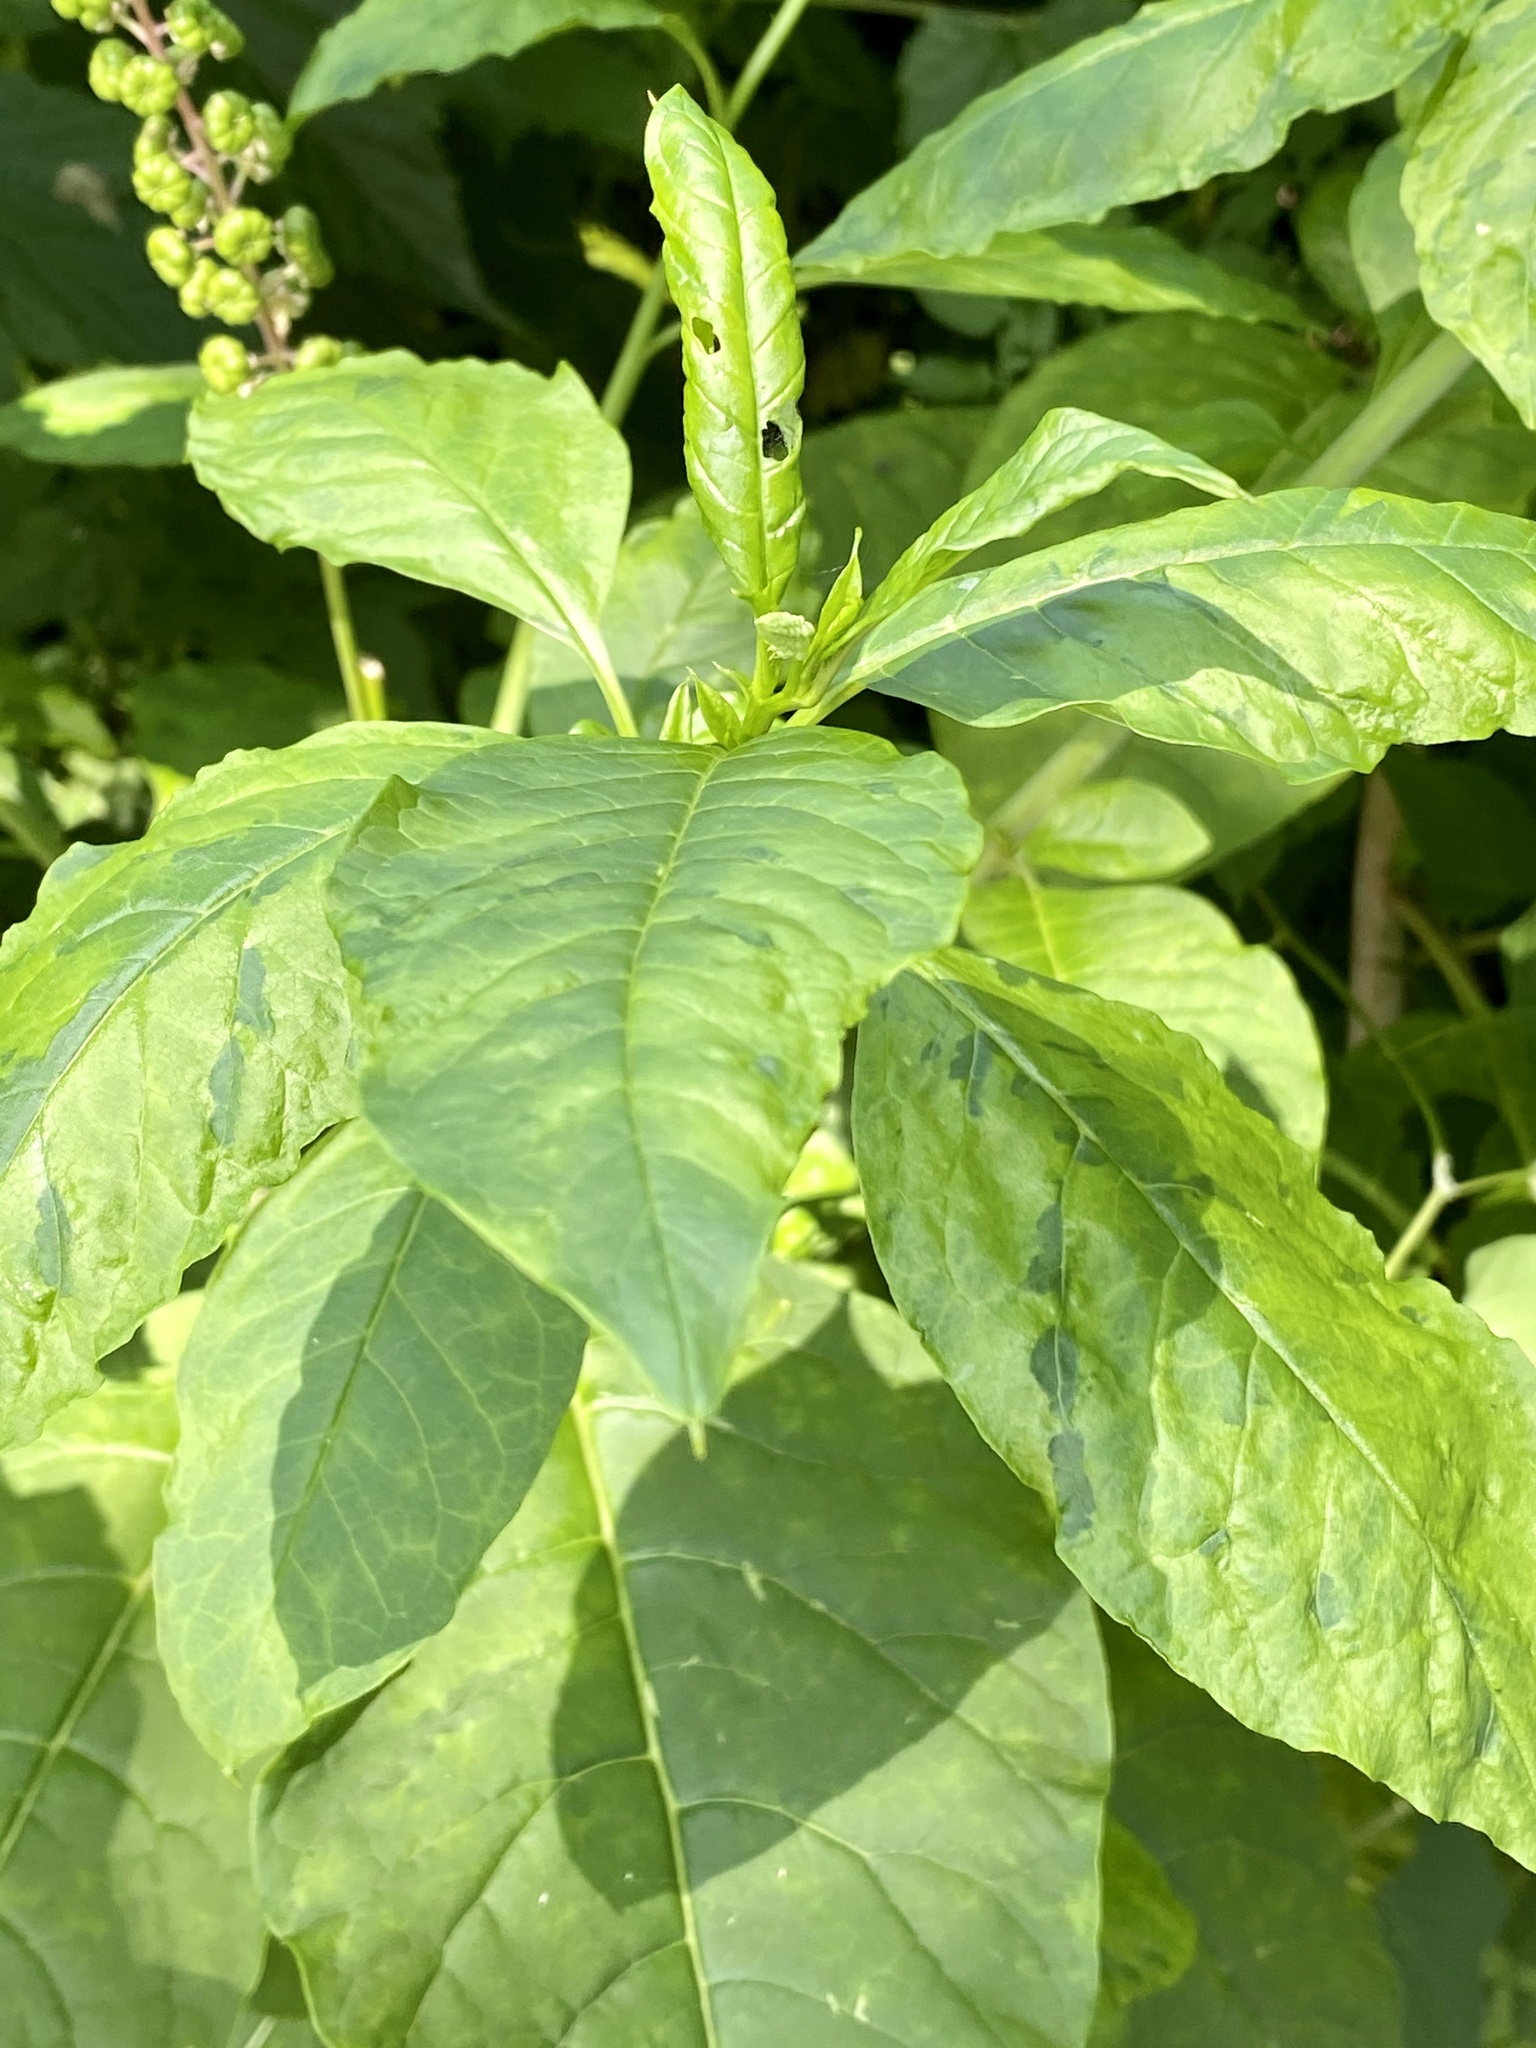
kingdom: Viruses
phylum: Pisuviricota
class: Stelpaviricetes
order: Patatavirales
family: Potyviridae
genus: Potyvirus
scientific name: Potyvirus Pokeweed mosaic virus
